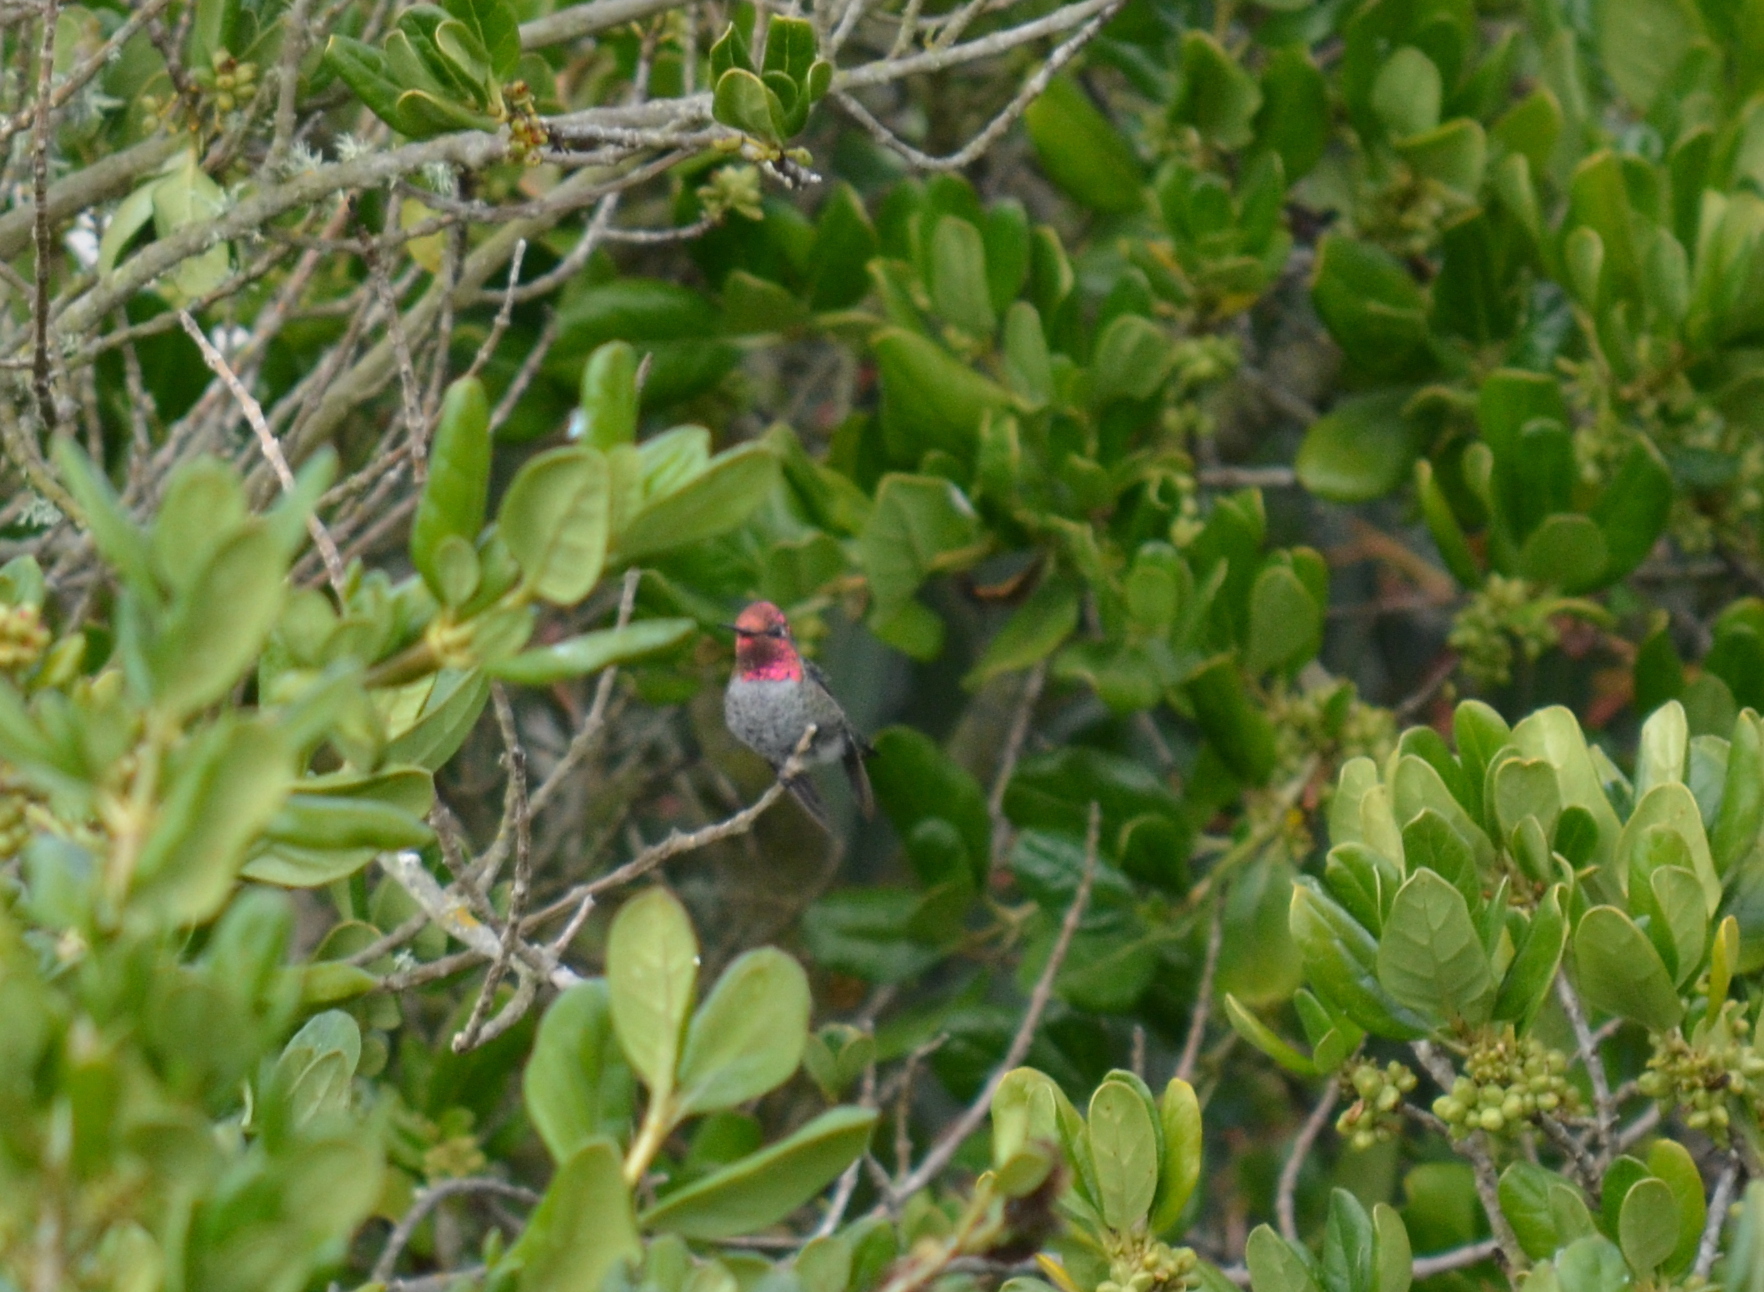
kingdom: Animalia
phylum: Chordata
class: Aves
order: Apodiformes
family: Trochilidae
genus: Calypte
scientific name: Calypte anna
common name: Anna's hummingbird
